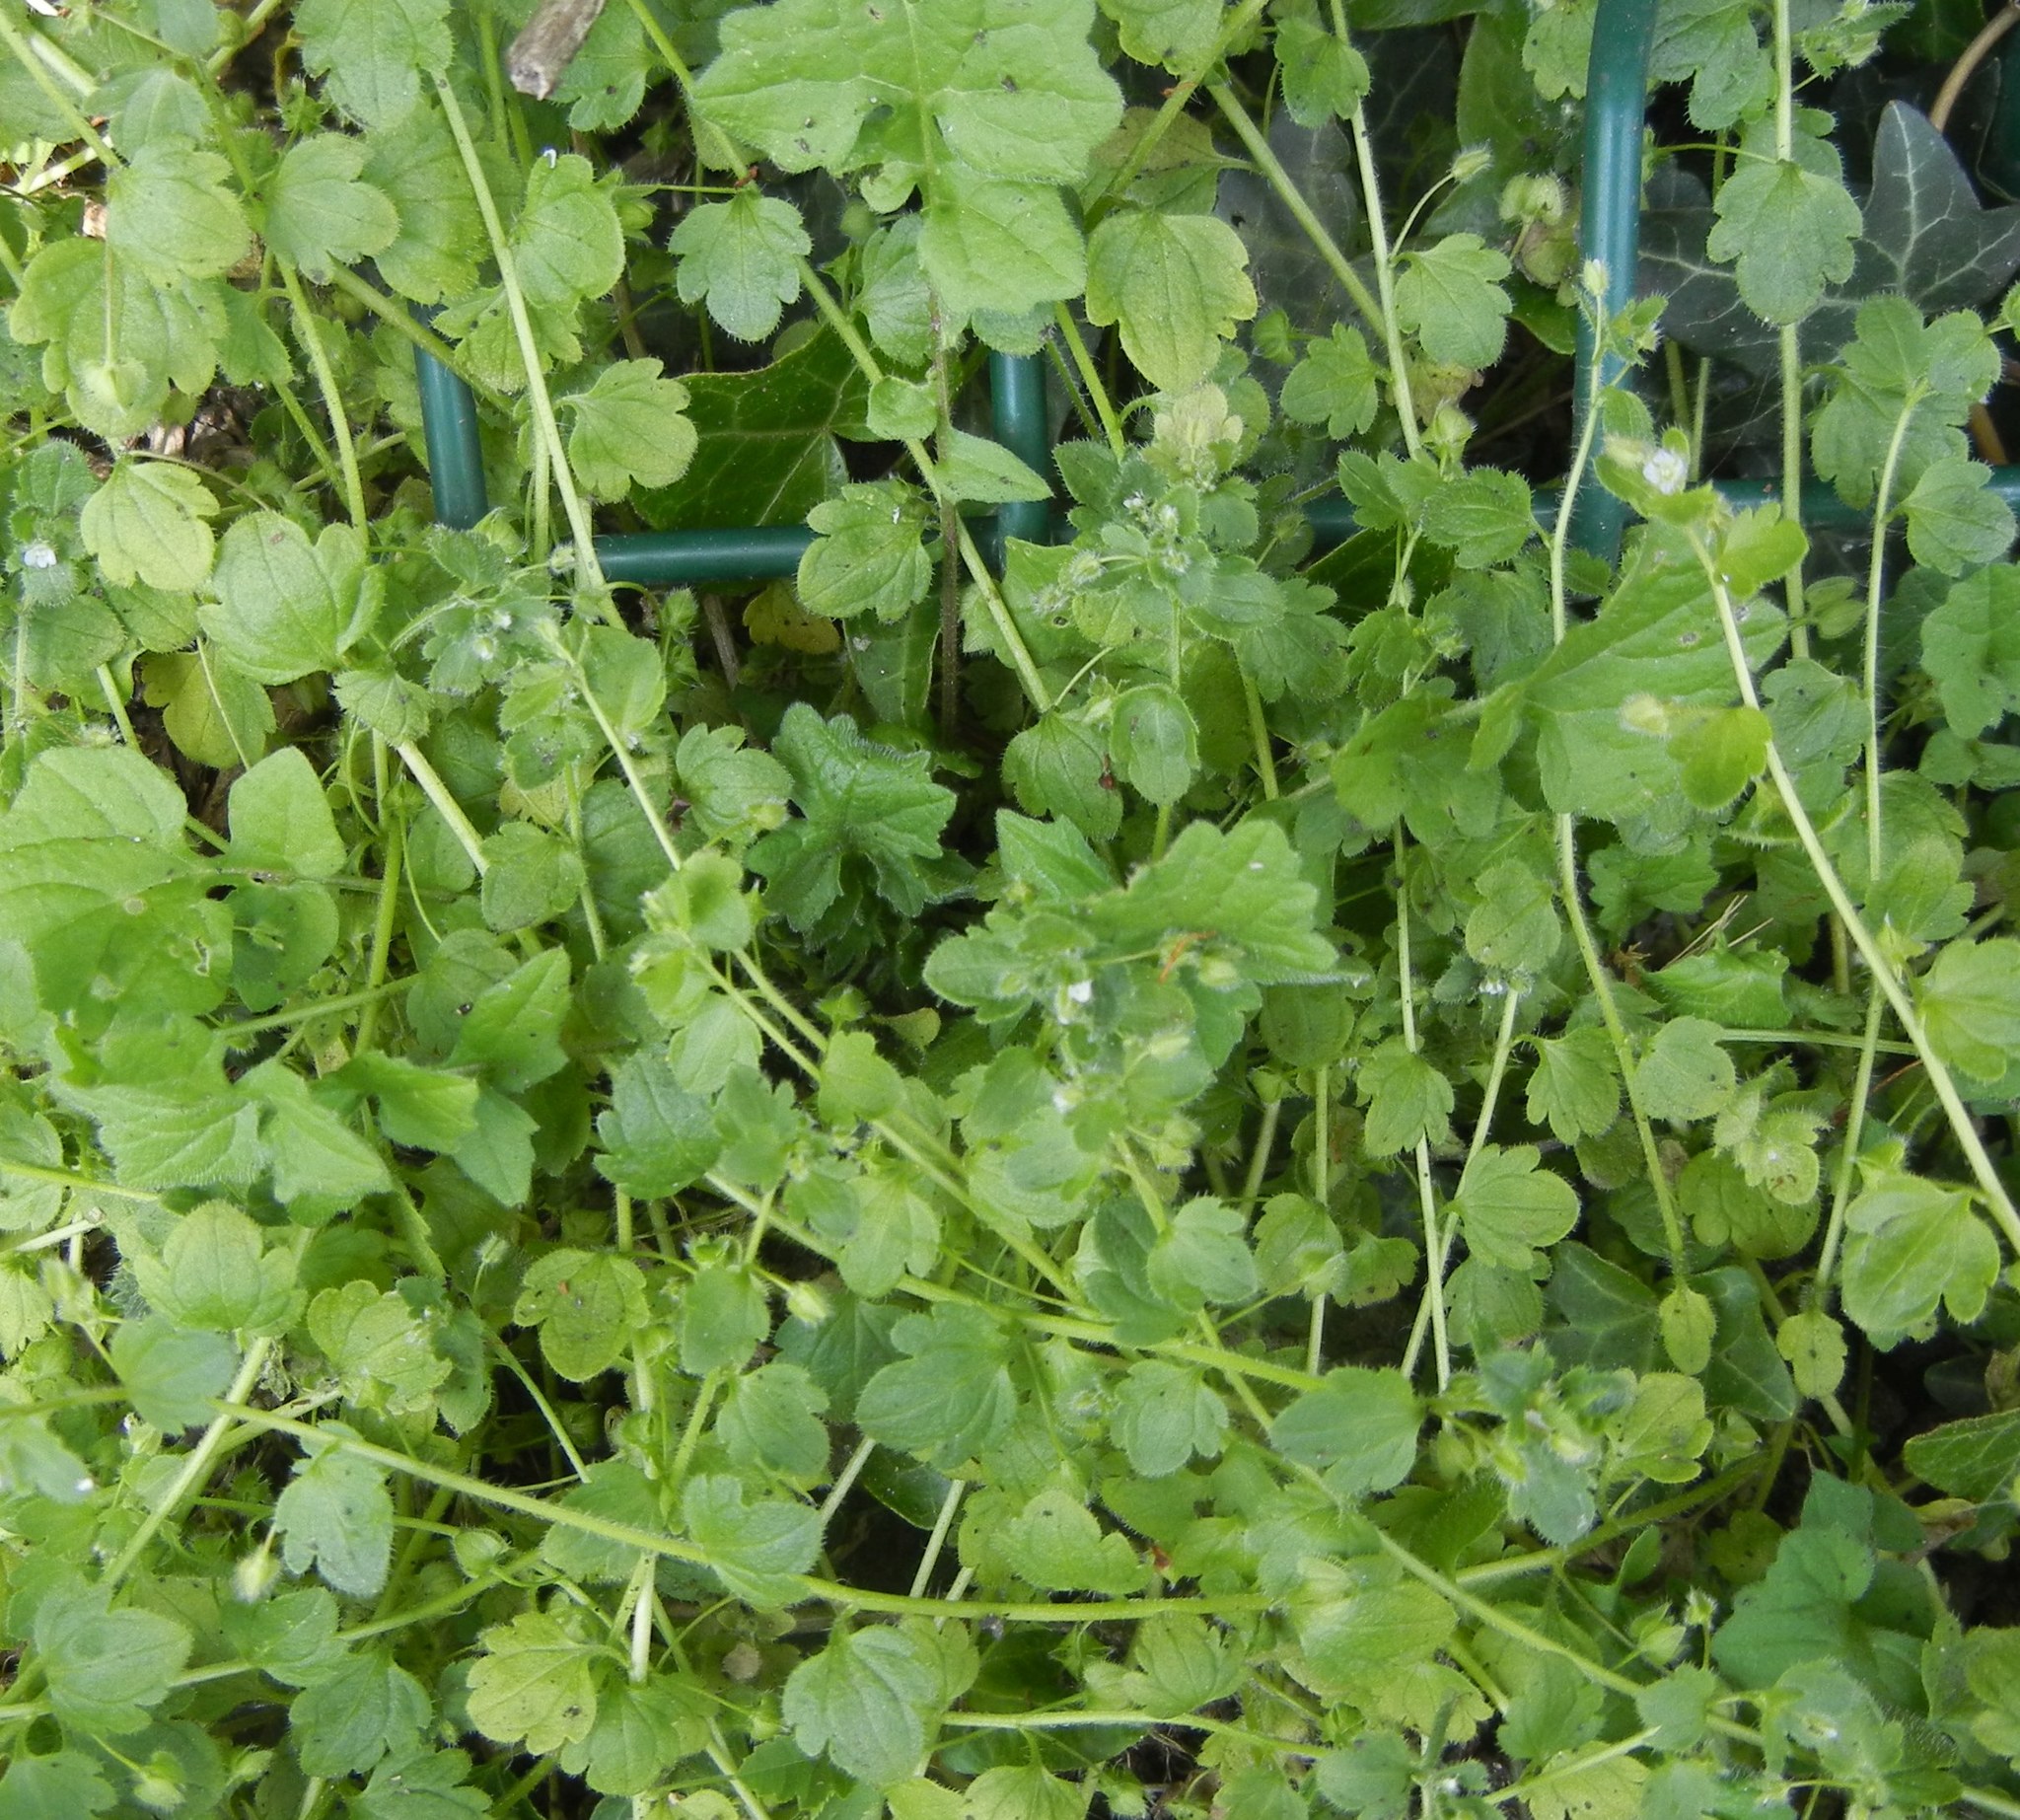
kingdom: Plantae
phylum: Tracheophyta
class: Magnoliopsida
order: Lamiales
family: Plantaginaceae
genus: Veronica
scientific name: Veronica sublobata
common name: False ivy-leaved speedwell
